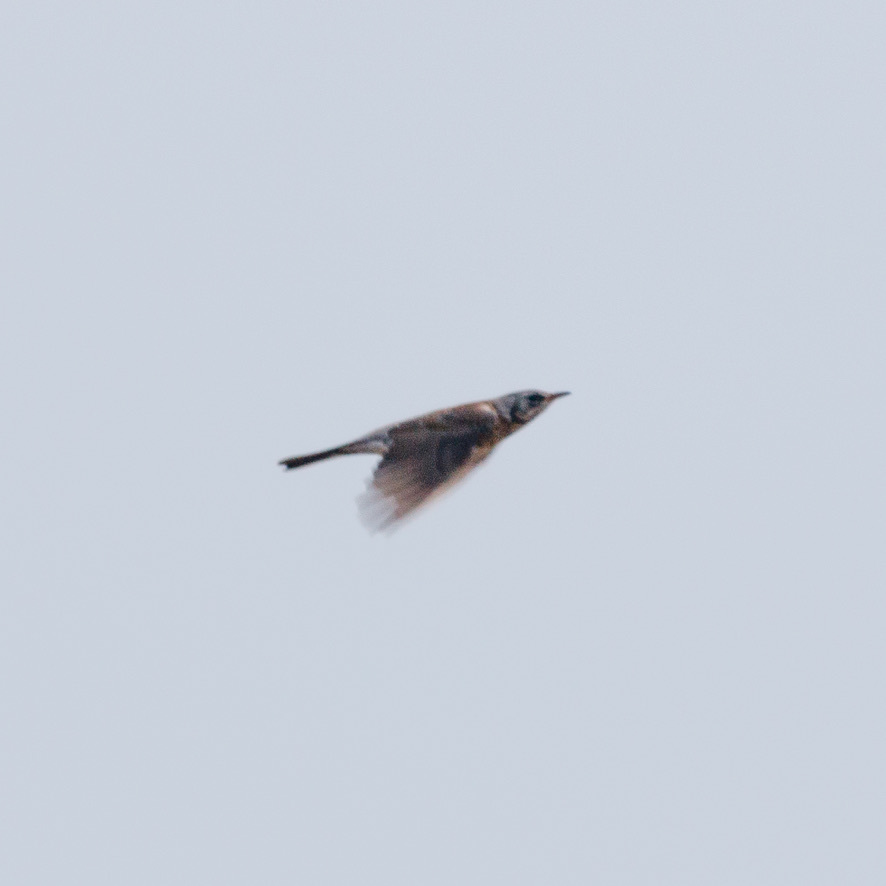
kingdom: Animalia
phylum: Chordata
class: Aves
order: Passeriformes
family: Turdidae
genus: Turdus
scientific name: Turdus pilaris
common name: Fieldfare
